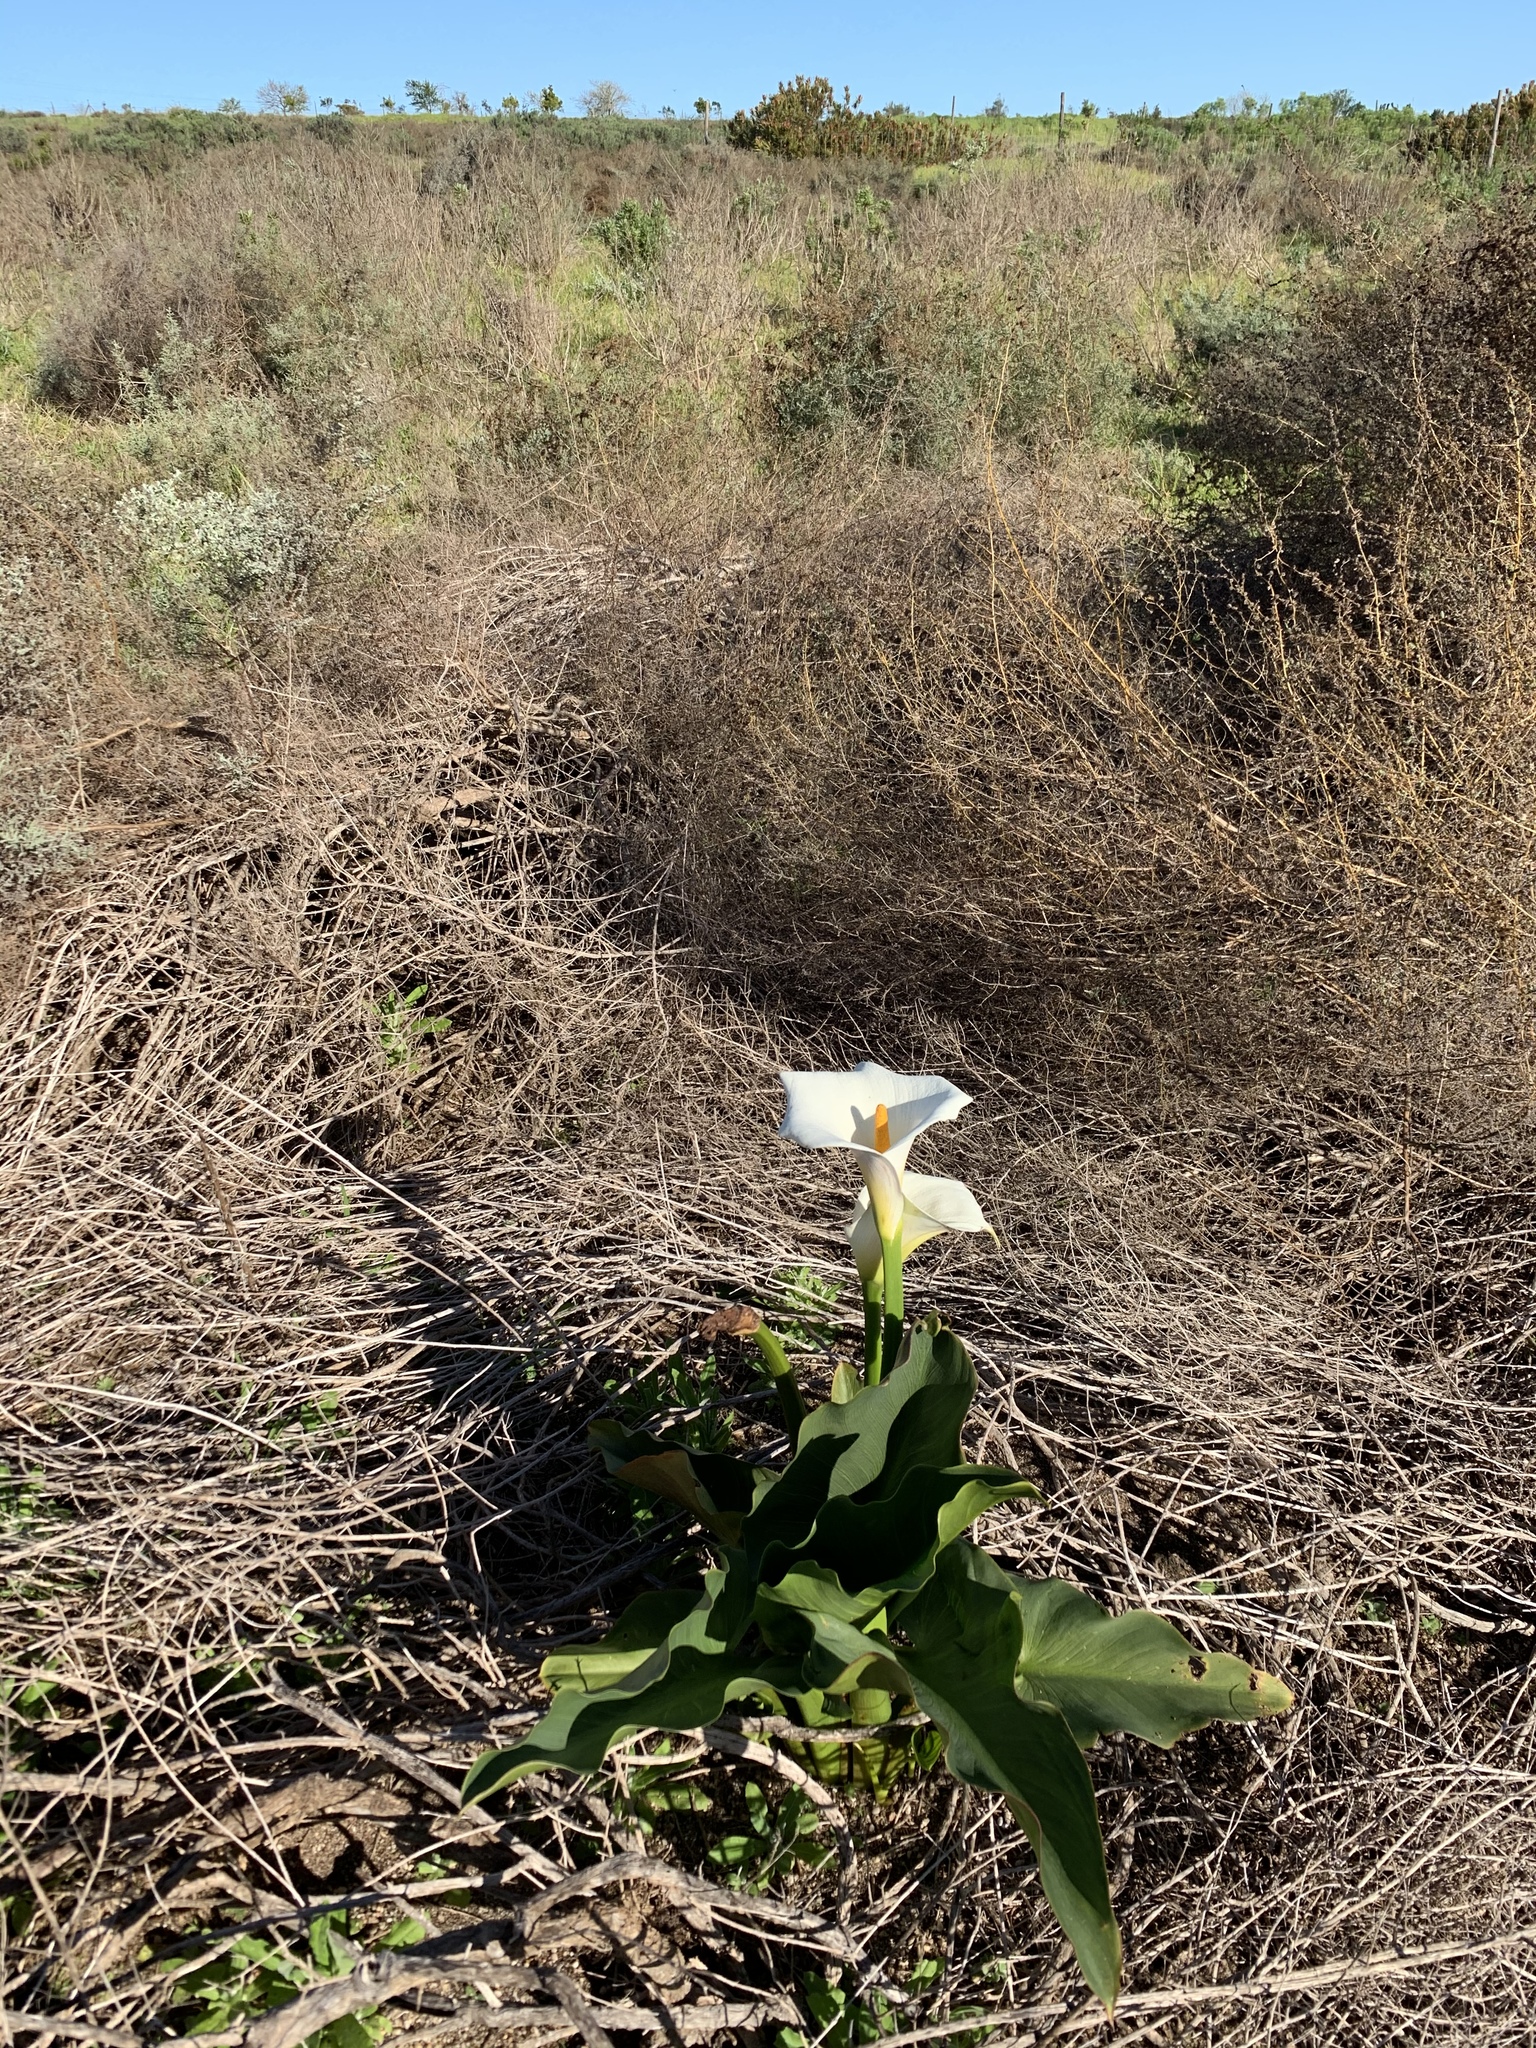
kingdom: Plantae
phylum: Tracheophyta
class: Liliopsida
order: Alismatales
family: Araceae
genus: Zantedeschia
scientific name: Zantedeschia aethiopica
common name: Altar-lily
